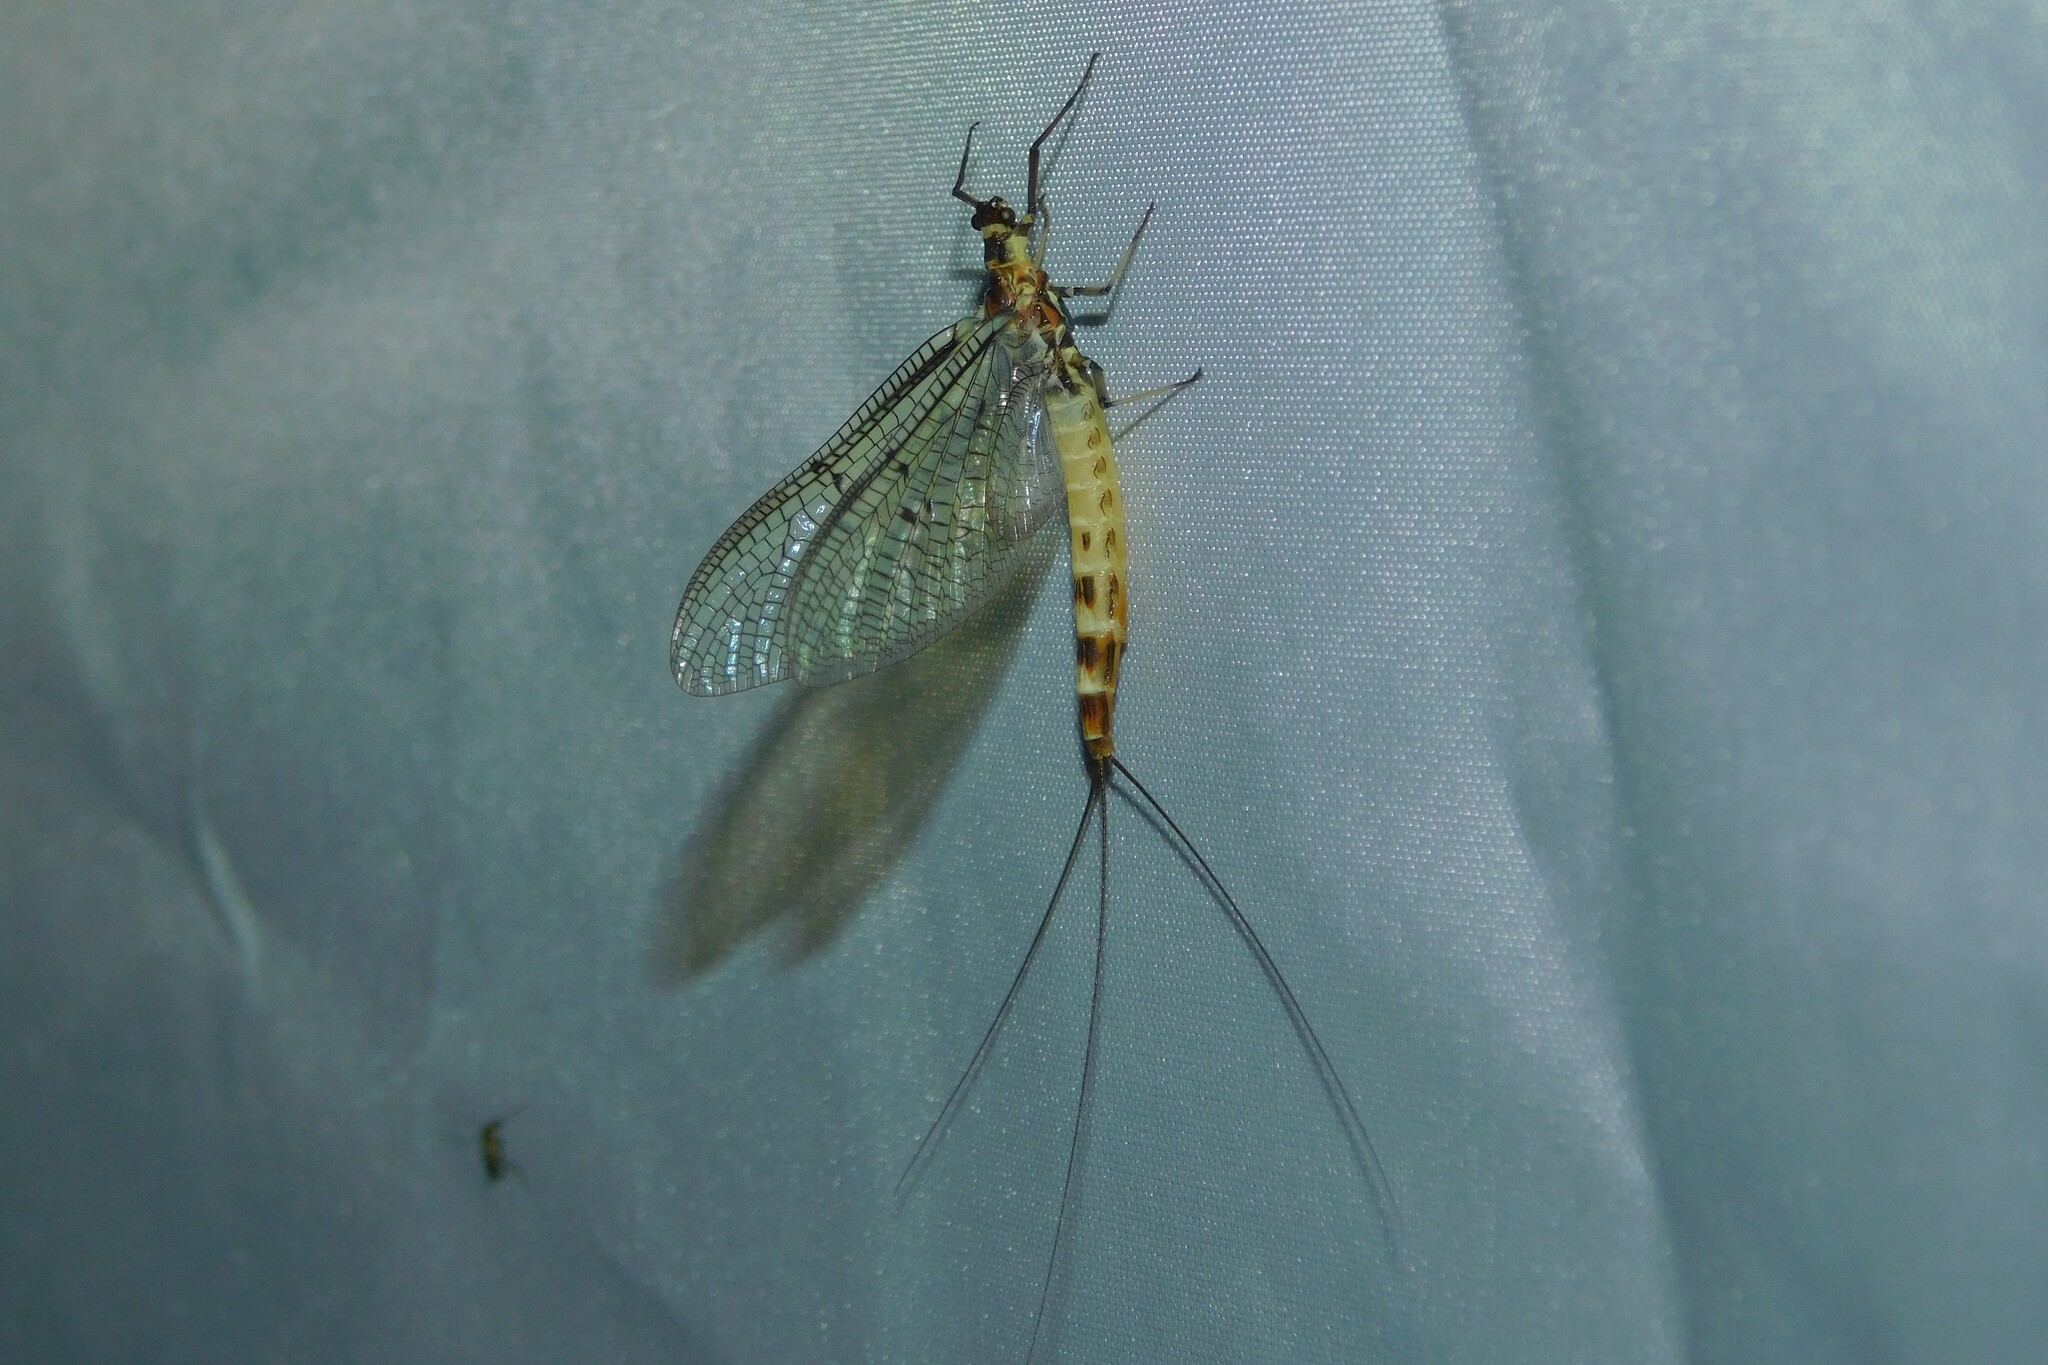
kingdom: Animalia
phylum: Arthropoda
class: Insecta
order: Ephemeroptera
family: Ephemeridae
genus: Ephemera
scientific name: Ephemera danica
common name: Green dun
